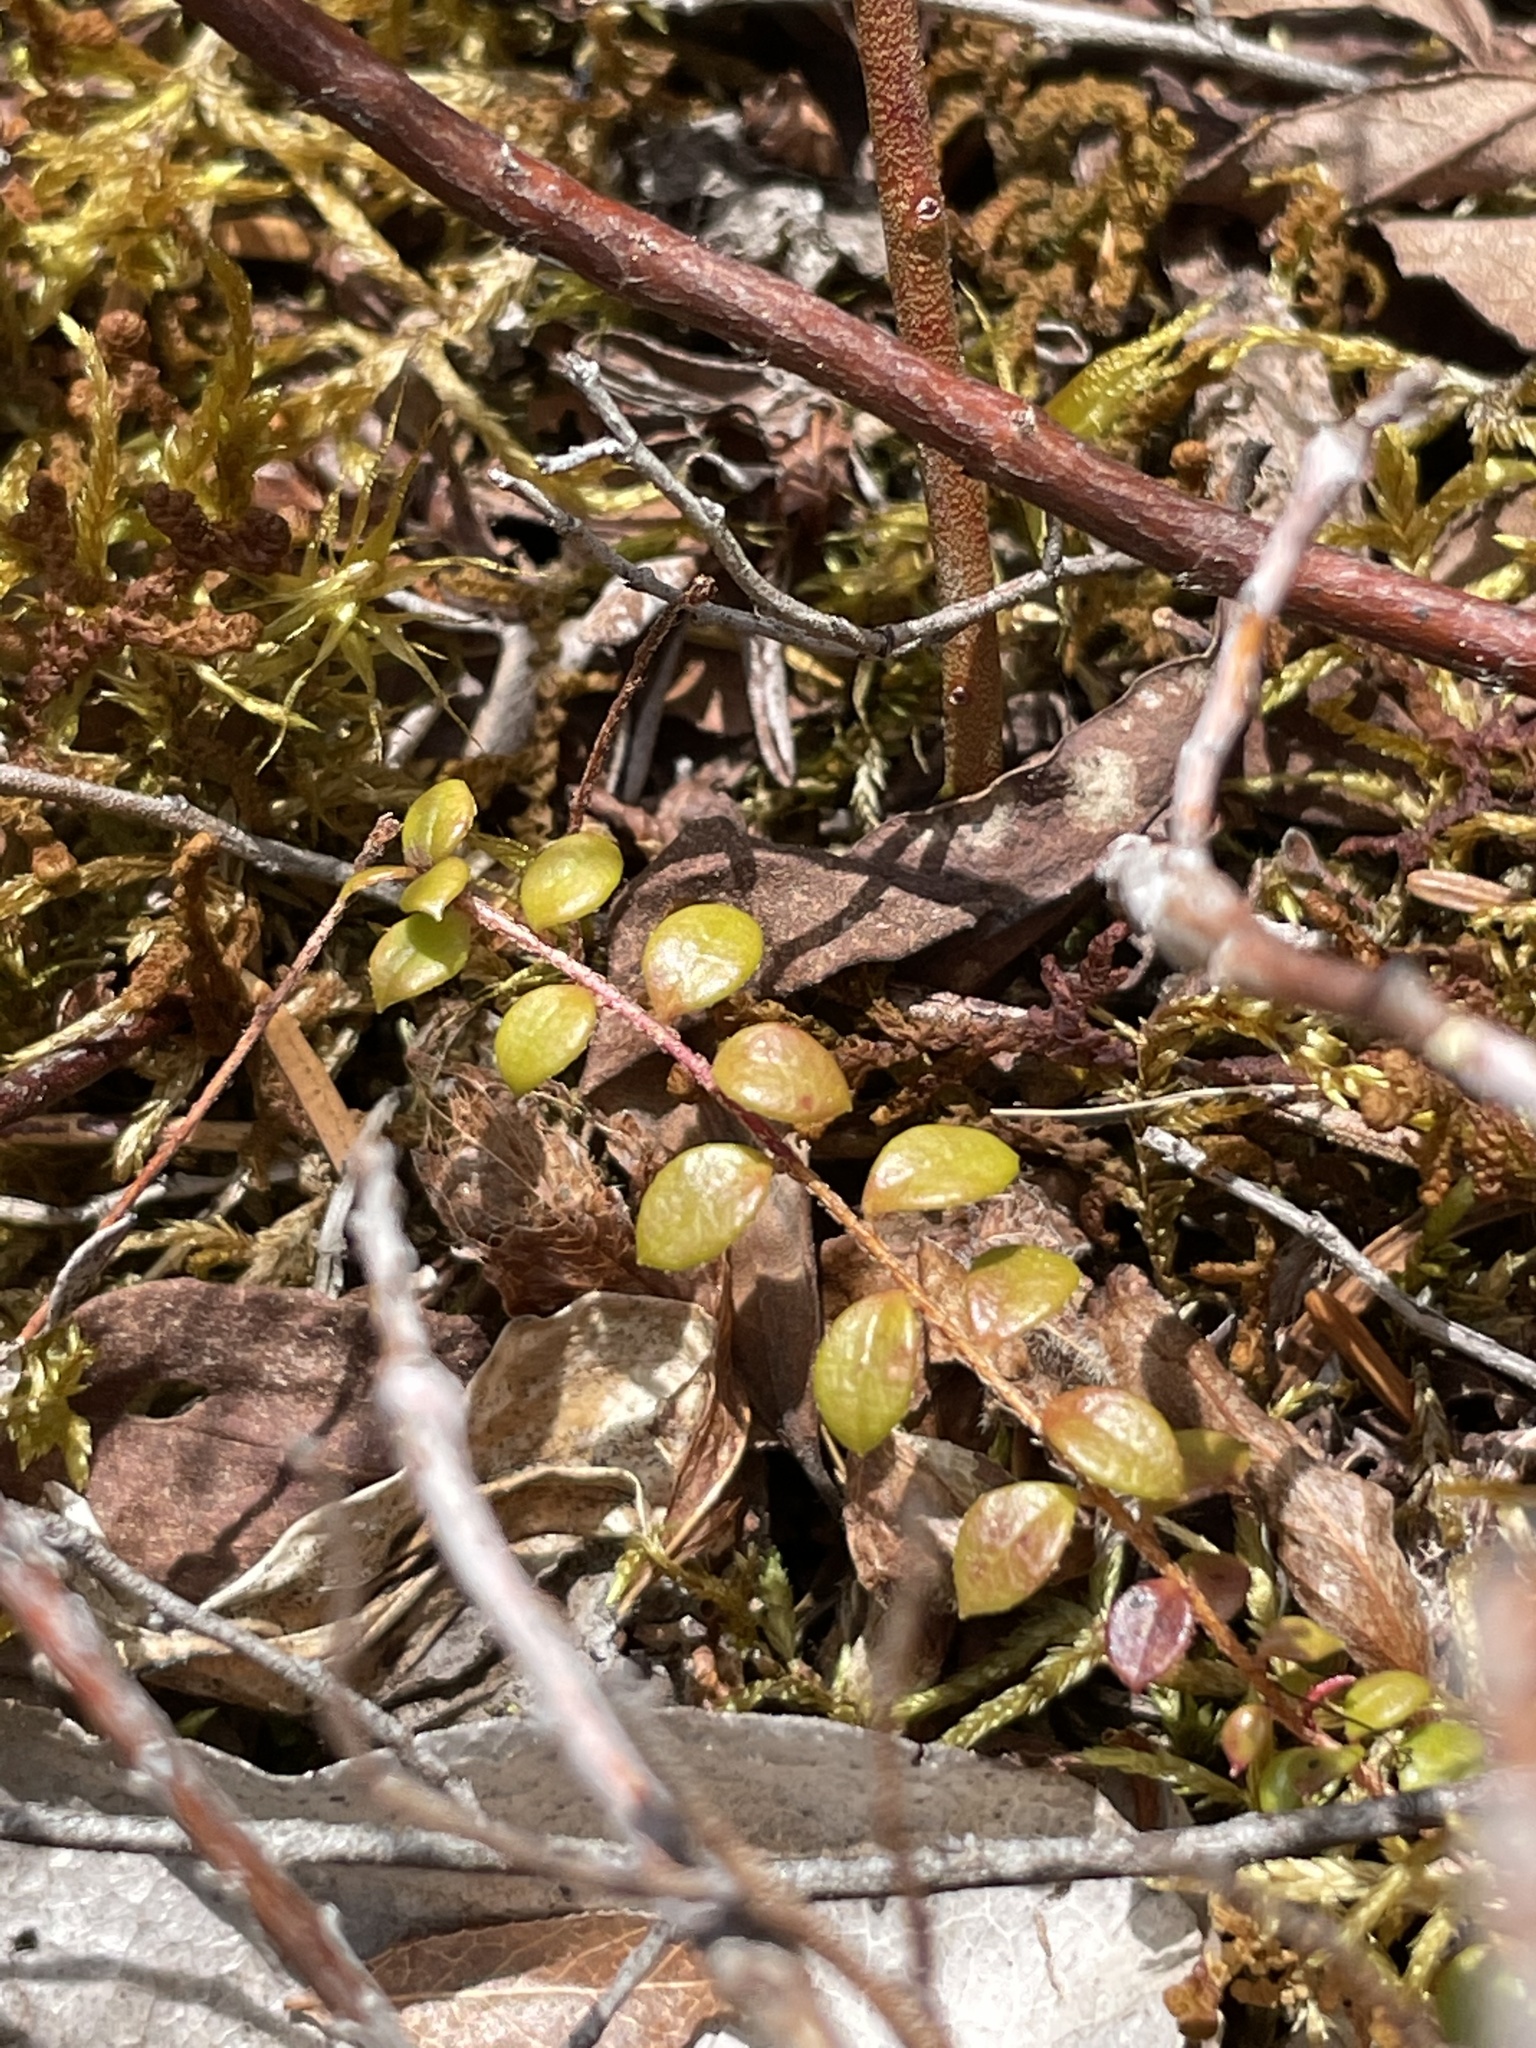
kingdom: Plantae
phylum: Tracheophyta
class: Magnoliopsida
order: Ericales
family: Ericaceae
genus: Gaultheria
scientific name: Gaultheria hispidula
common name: Cancer wintergreen
